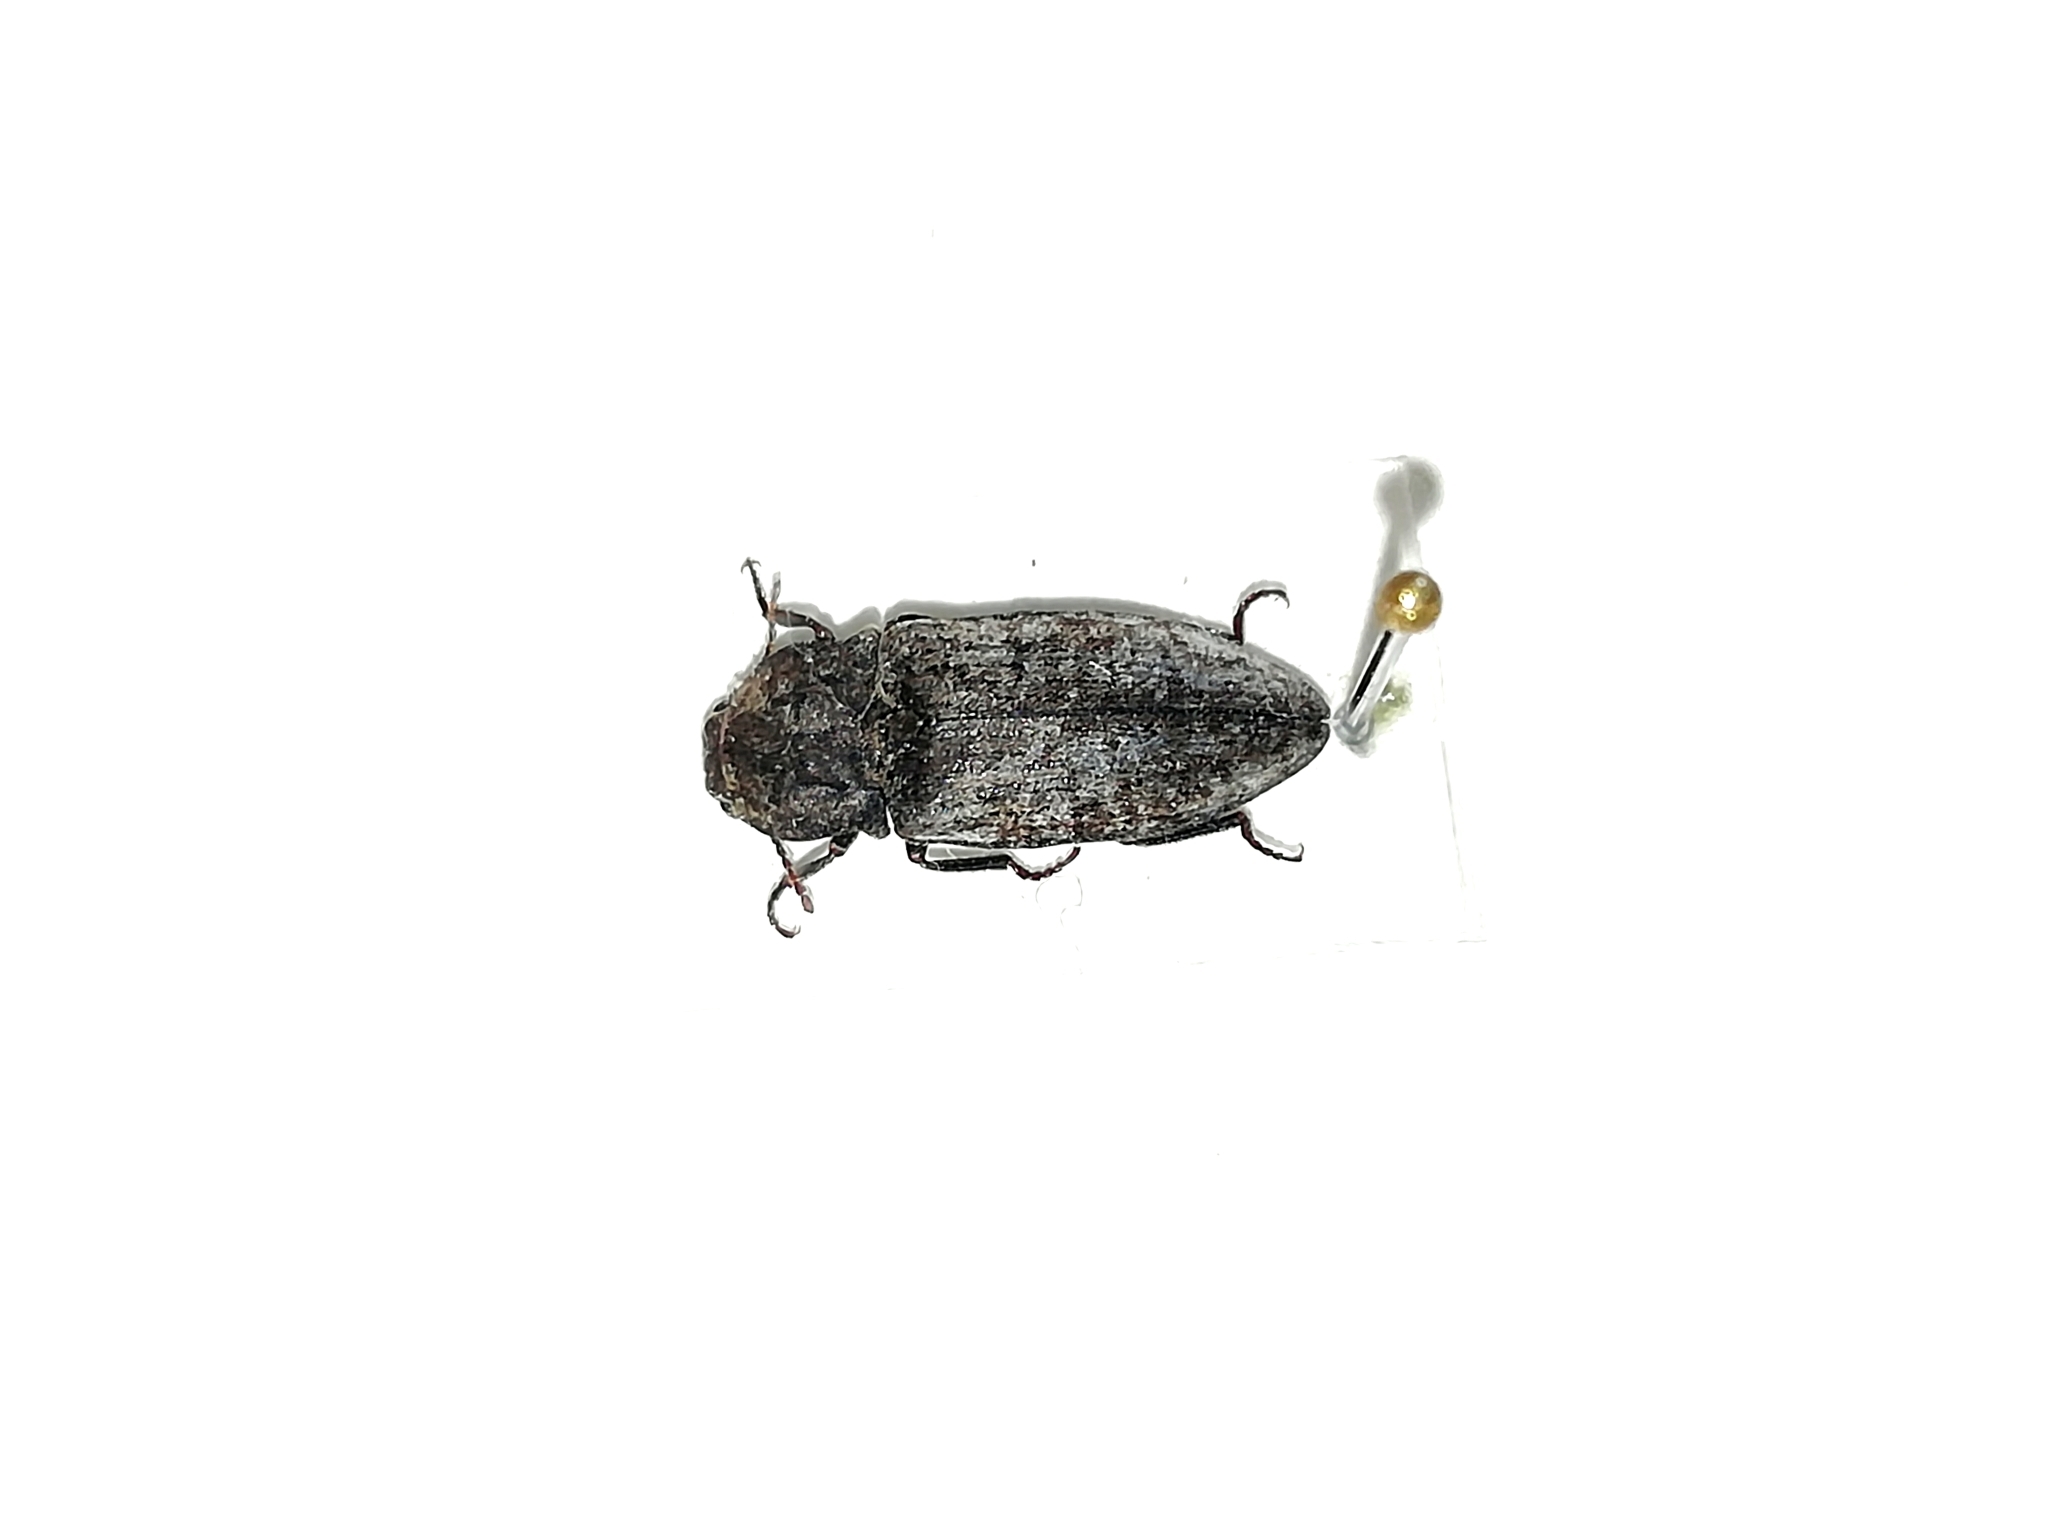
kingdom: Animalia
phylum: Arthropoda
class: Insecta
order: Coleoptera
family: Elateridae
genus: Agrypnus
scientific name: Agrypnus murinus
